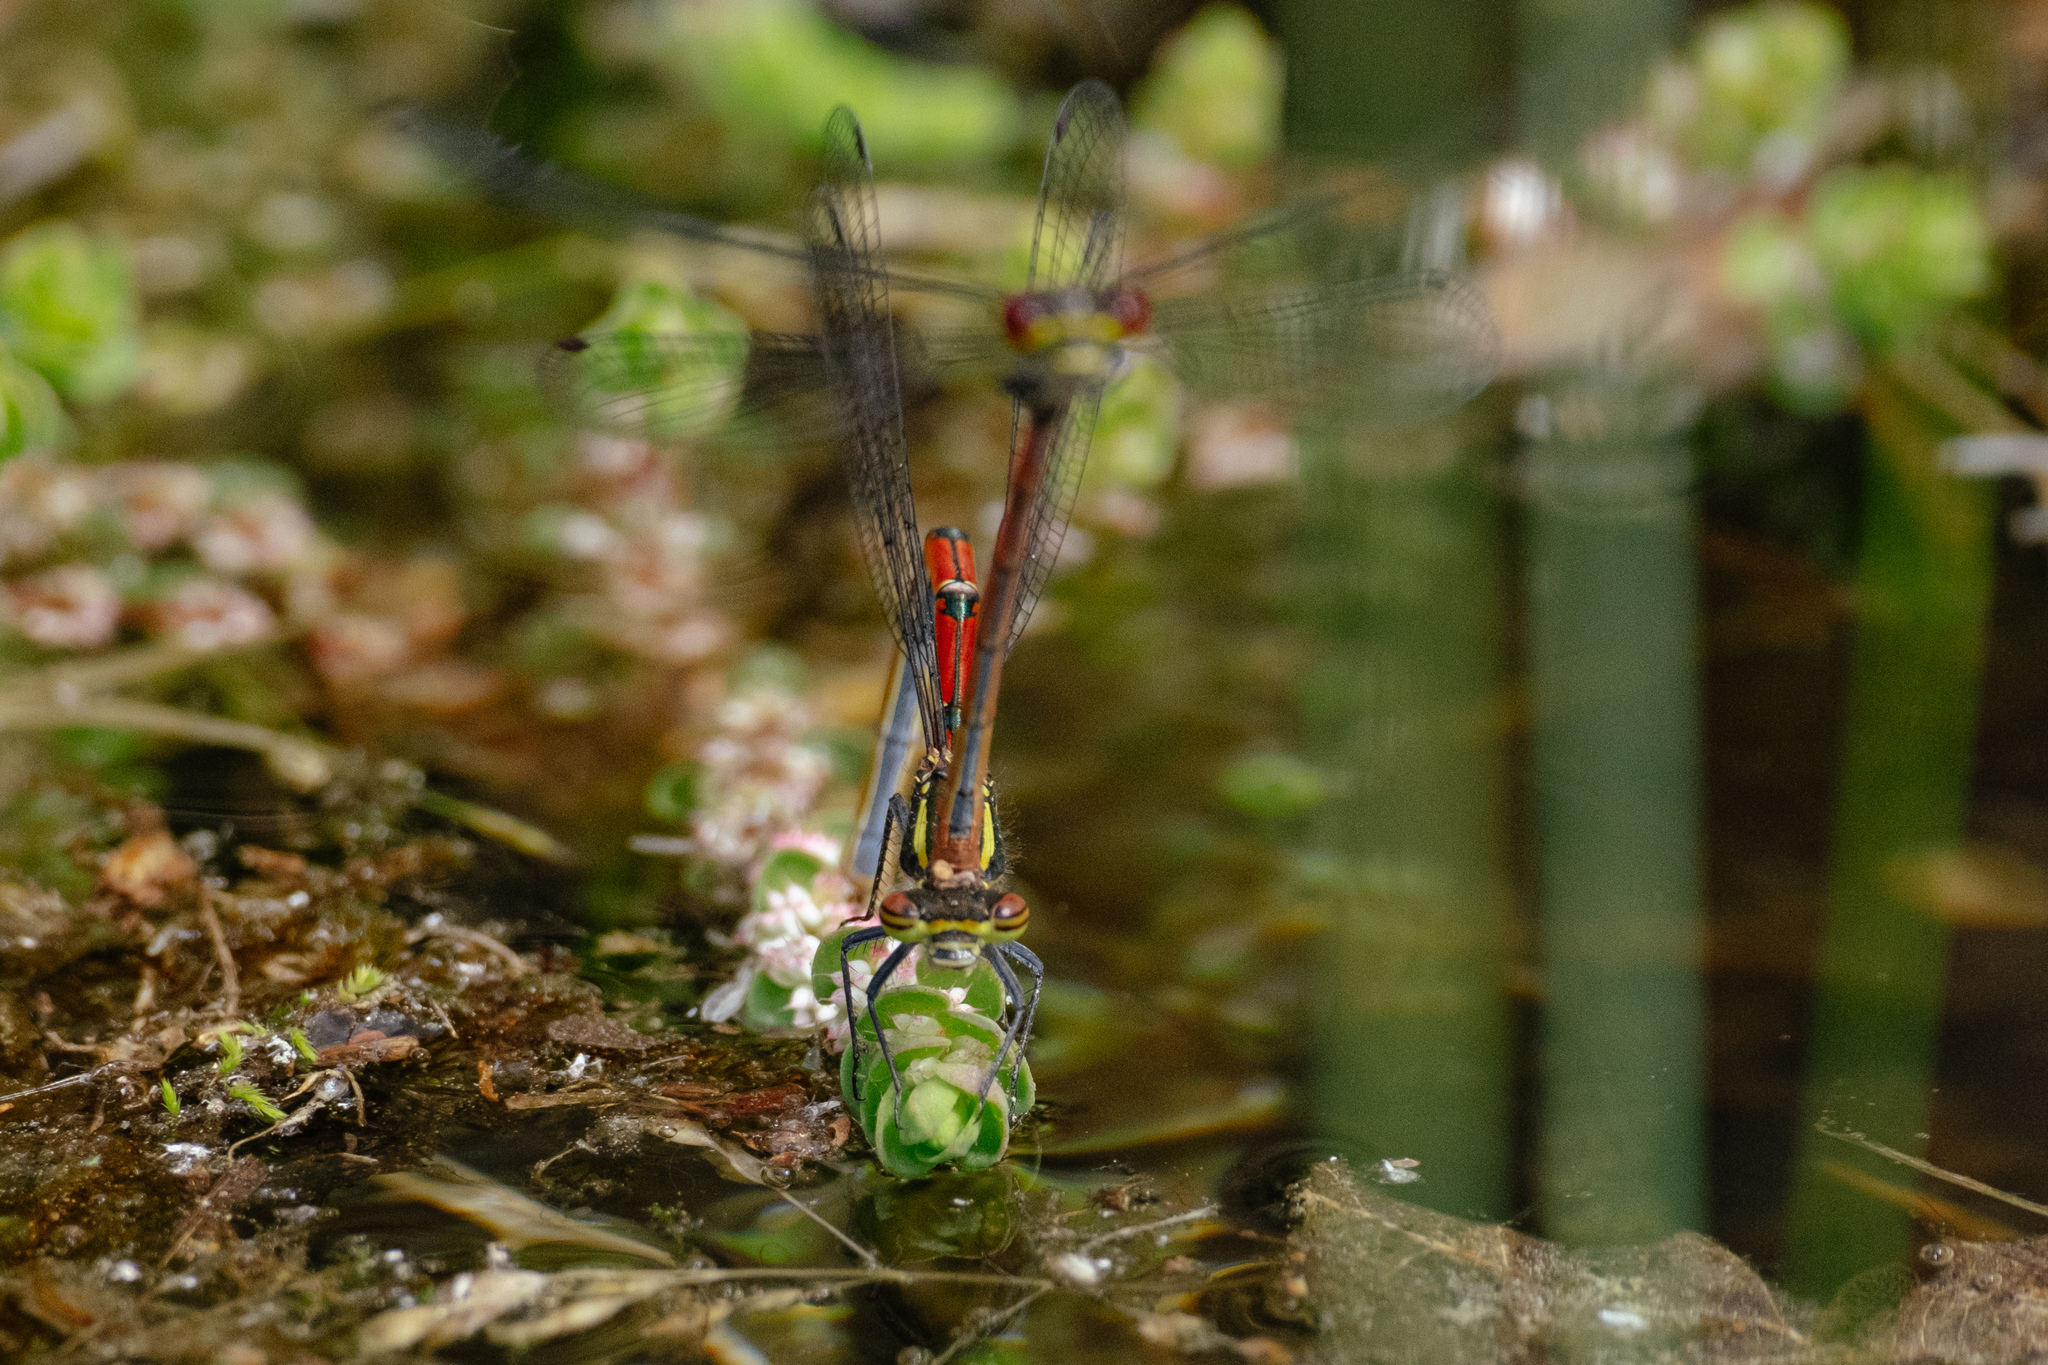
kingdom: Animalia
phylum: Arthropoda
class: Insecta
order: Odonata
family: Coenagrionidae
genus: Pyrrhosoma
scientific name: Pyrrhosoma nymphula
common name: Large red damsel
